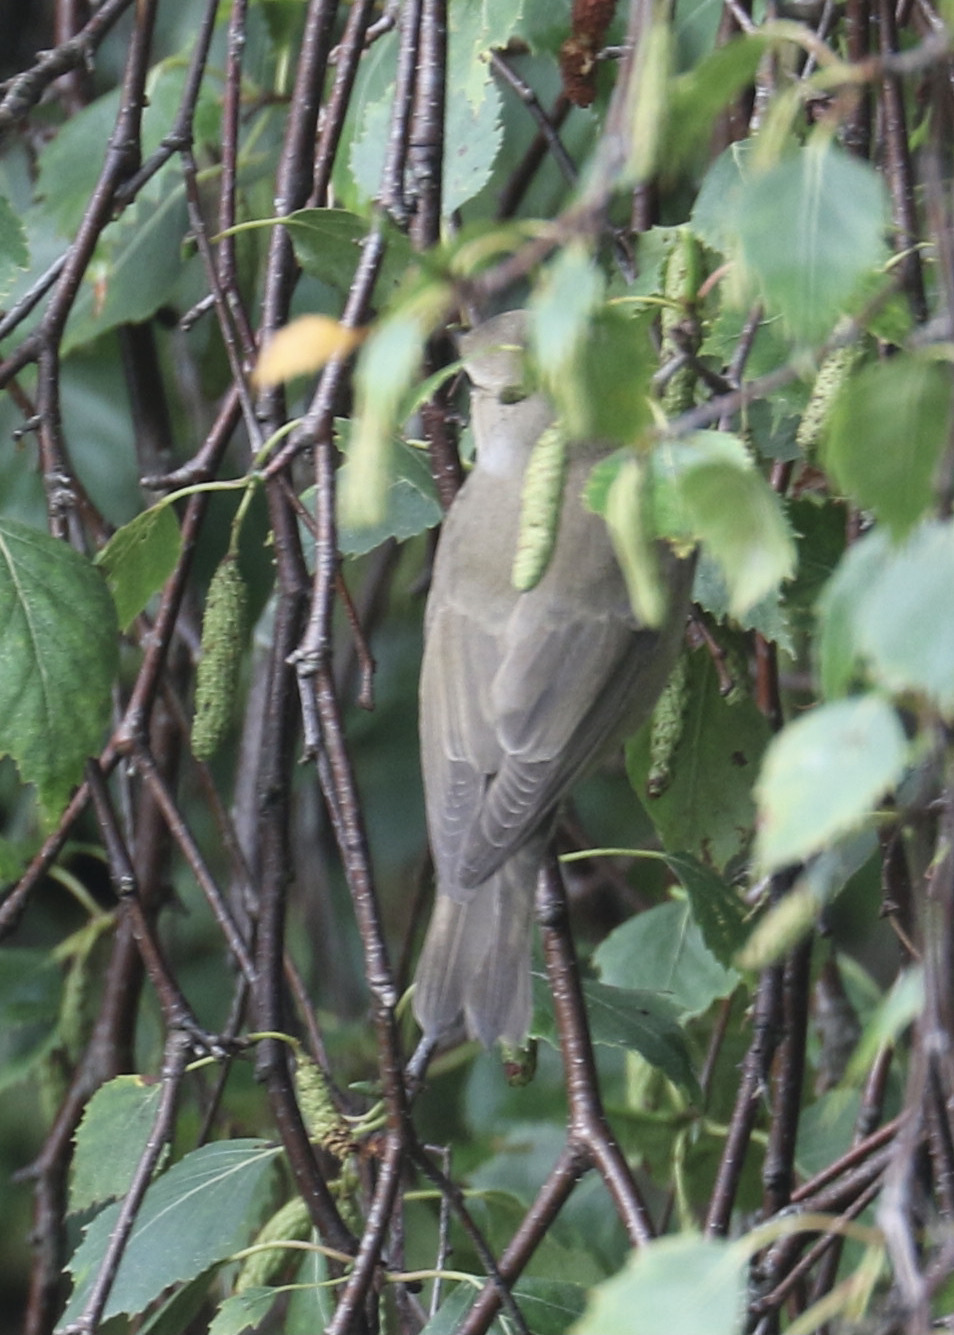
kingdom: Animalia
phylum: Chordata
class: Aves
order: Passeriformes
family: Sylviidae
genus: Sylvia
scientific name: Sylvia borin
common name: Garden warbler
